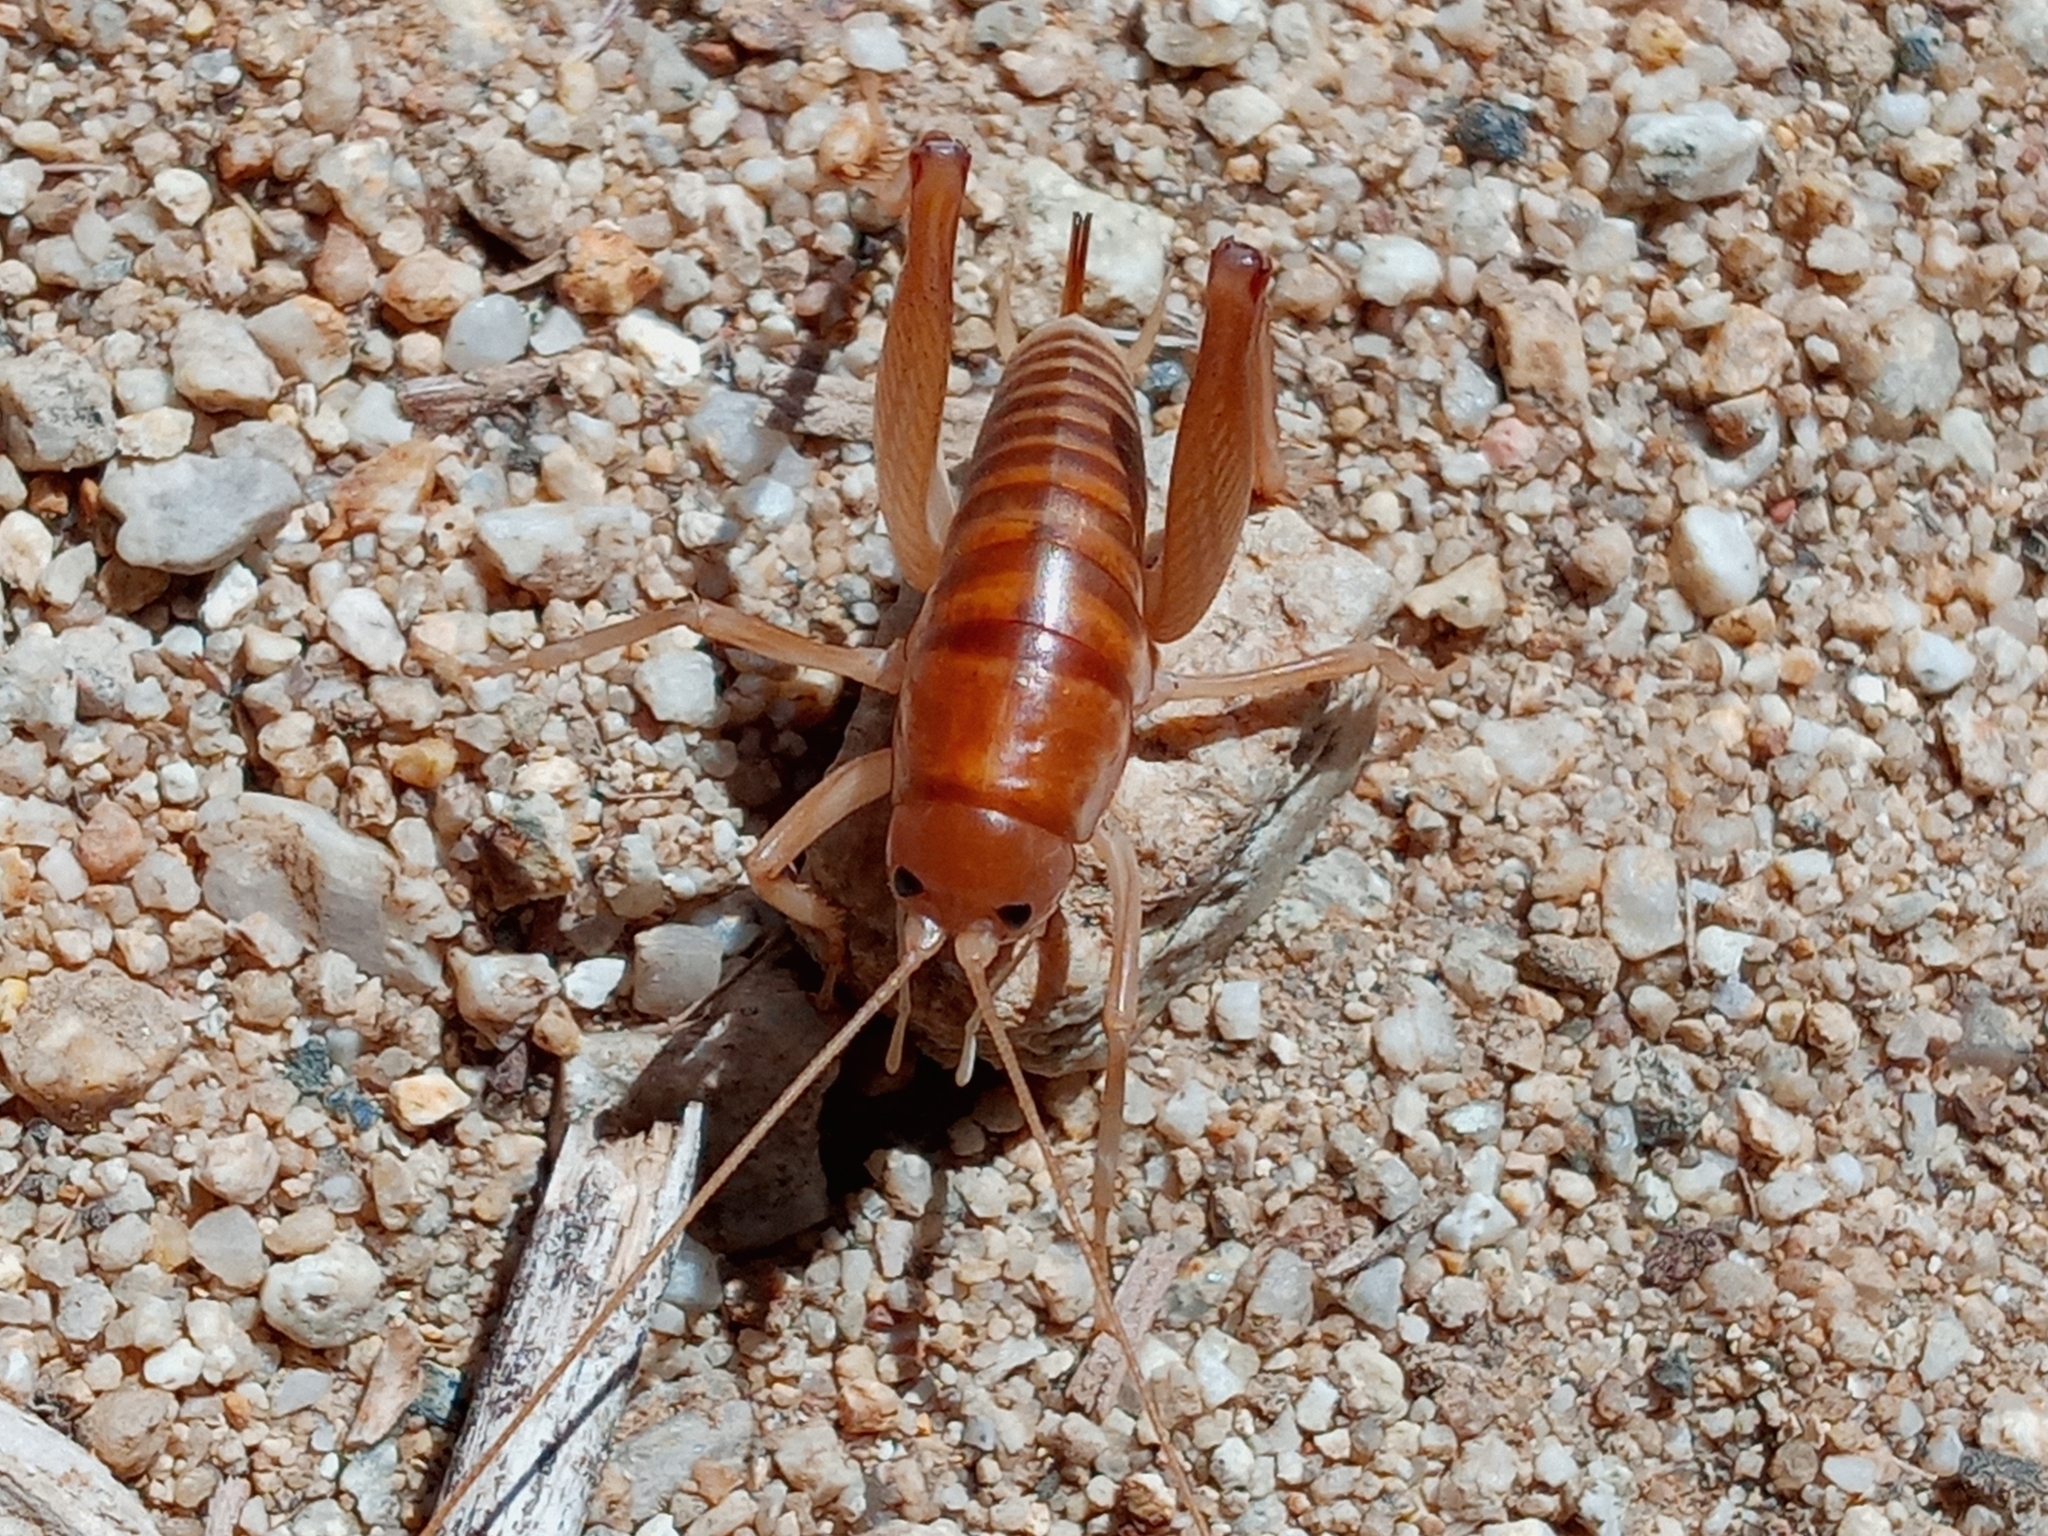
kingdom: Animalia
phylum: Arthropoda
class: Insecta
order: Orthoptera
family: Rhaphidophoridae
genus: Ceuthophilus
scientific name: Ceuthophilus californianus
